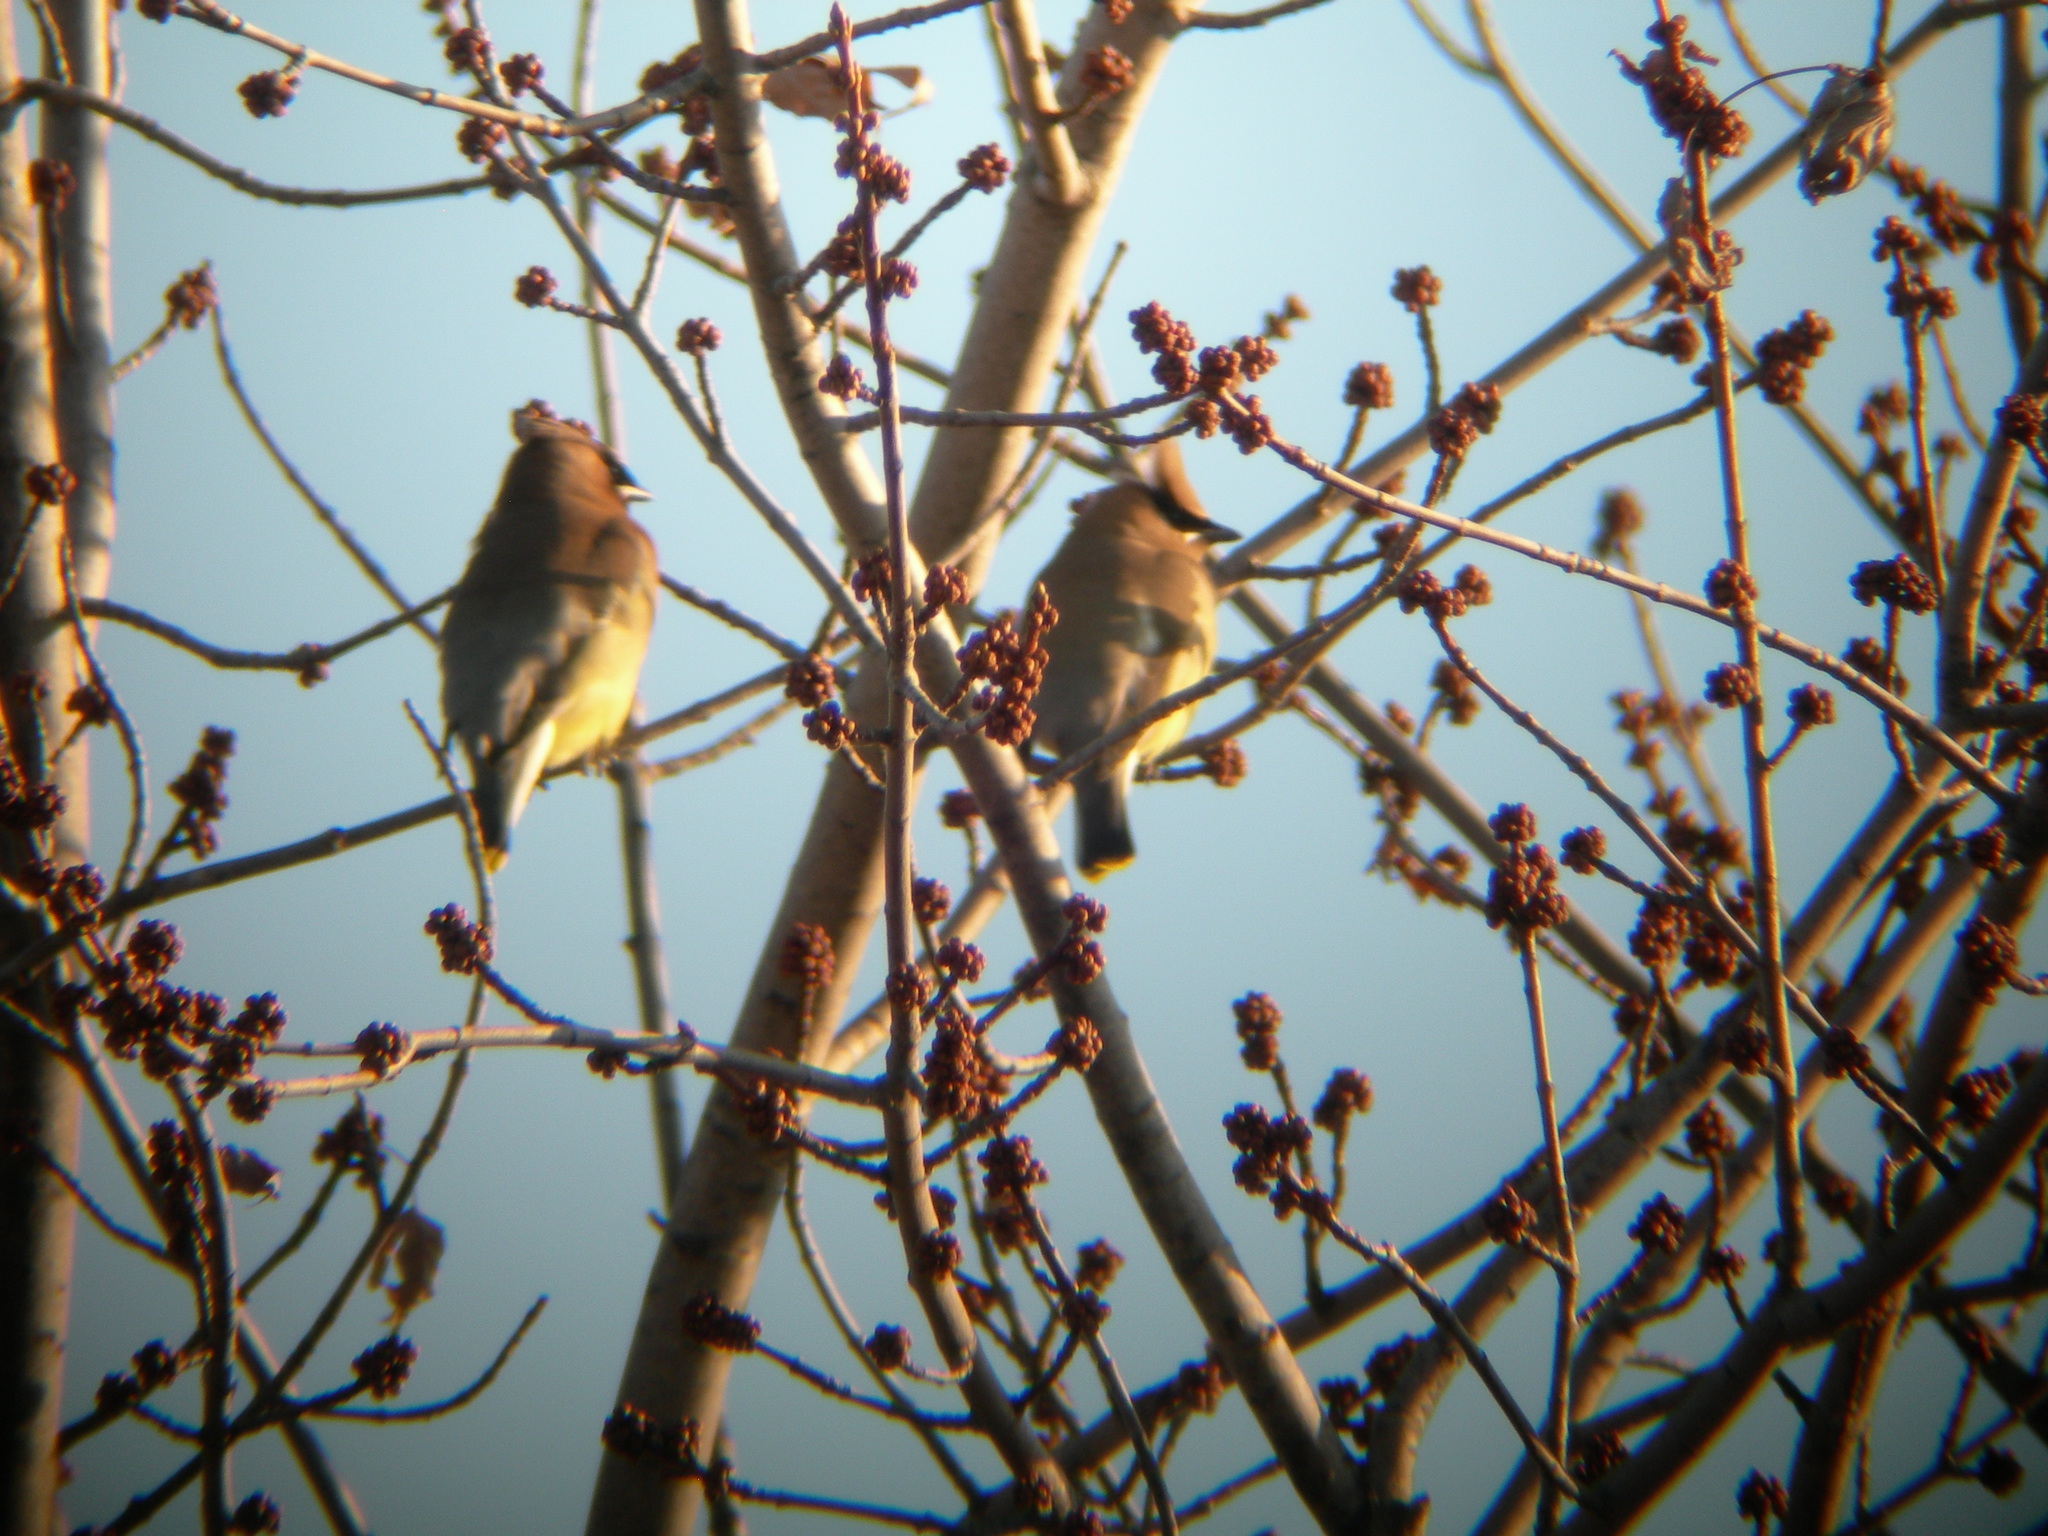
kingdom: Animalia
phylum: Chordata
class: Aves
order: Passeriformes
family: Bombycillidae
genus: Bombycilla
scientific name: Bombycilla cedrorum
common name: Cedar waxwing
